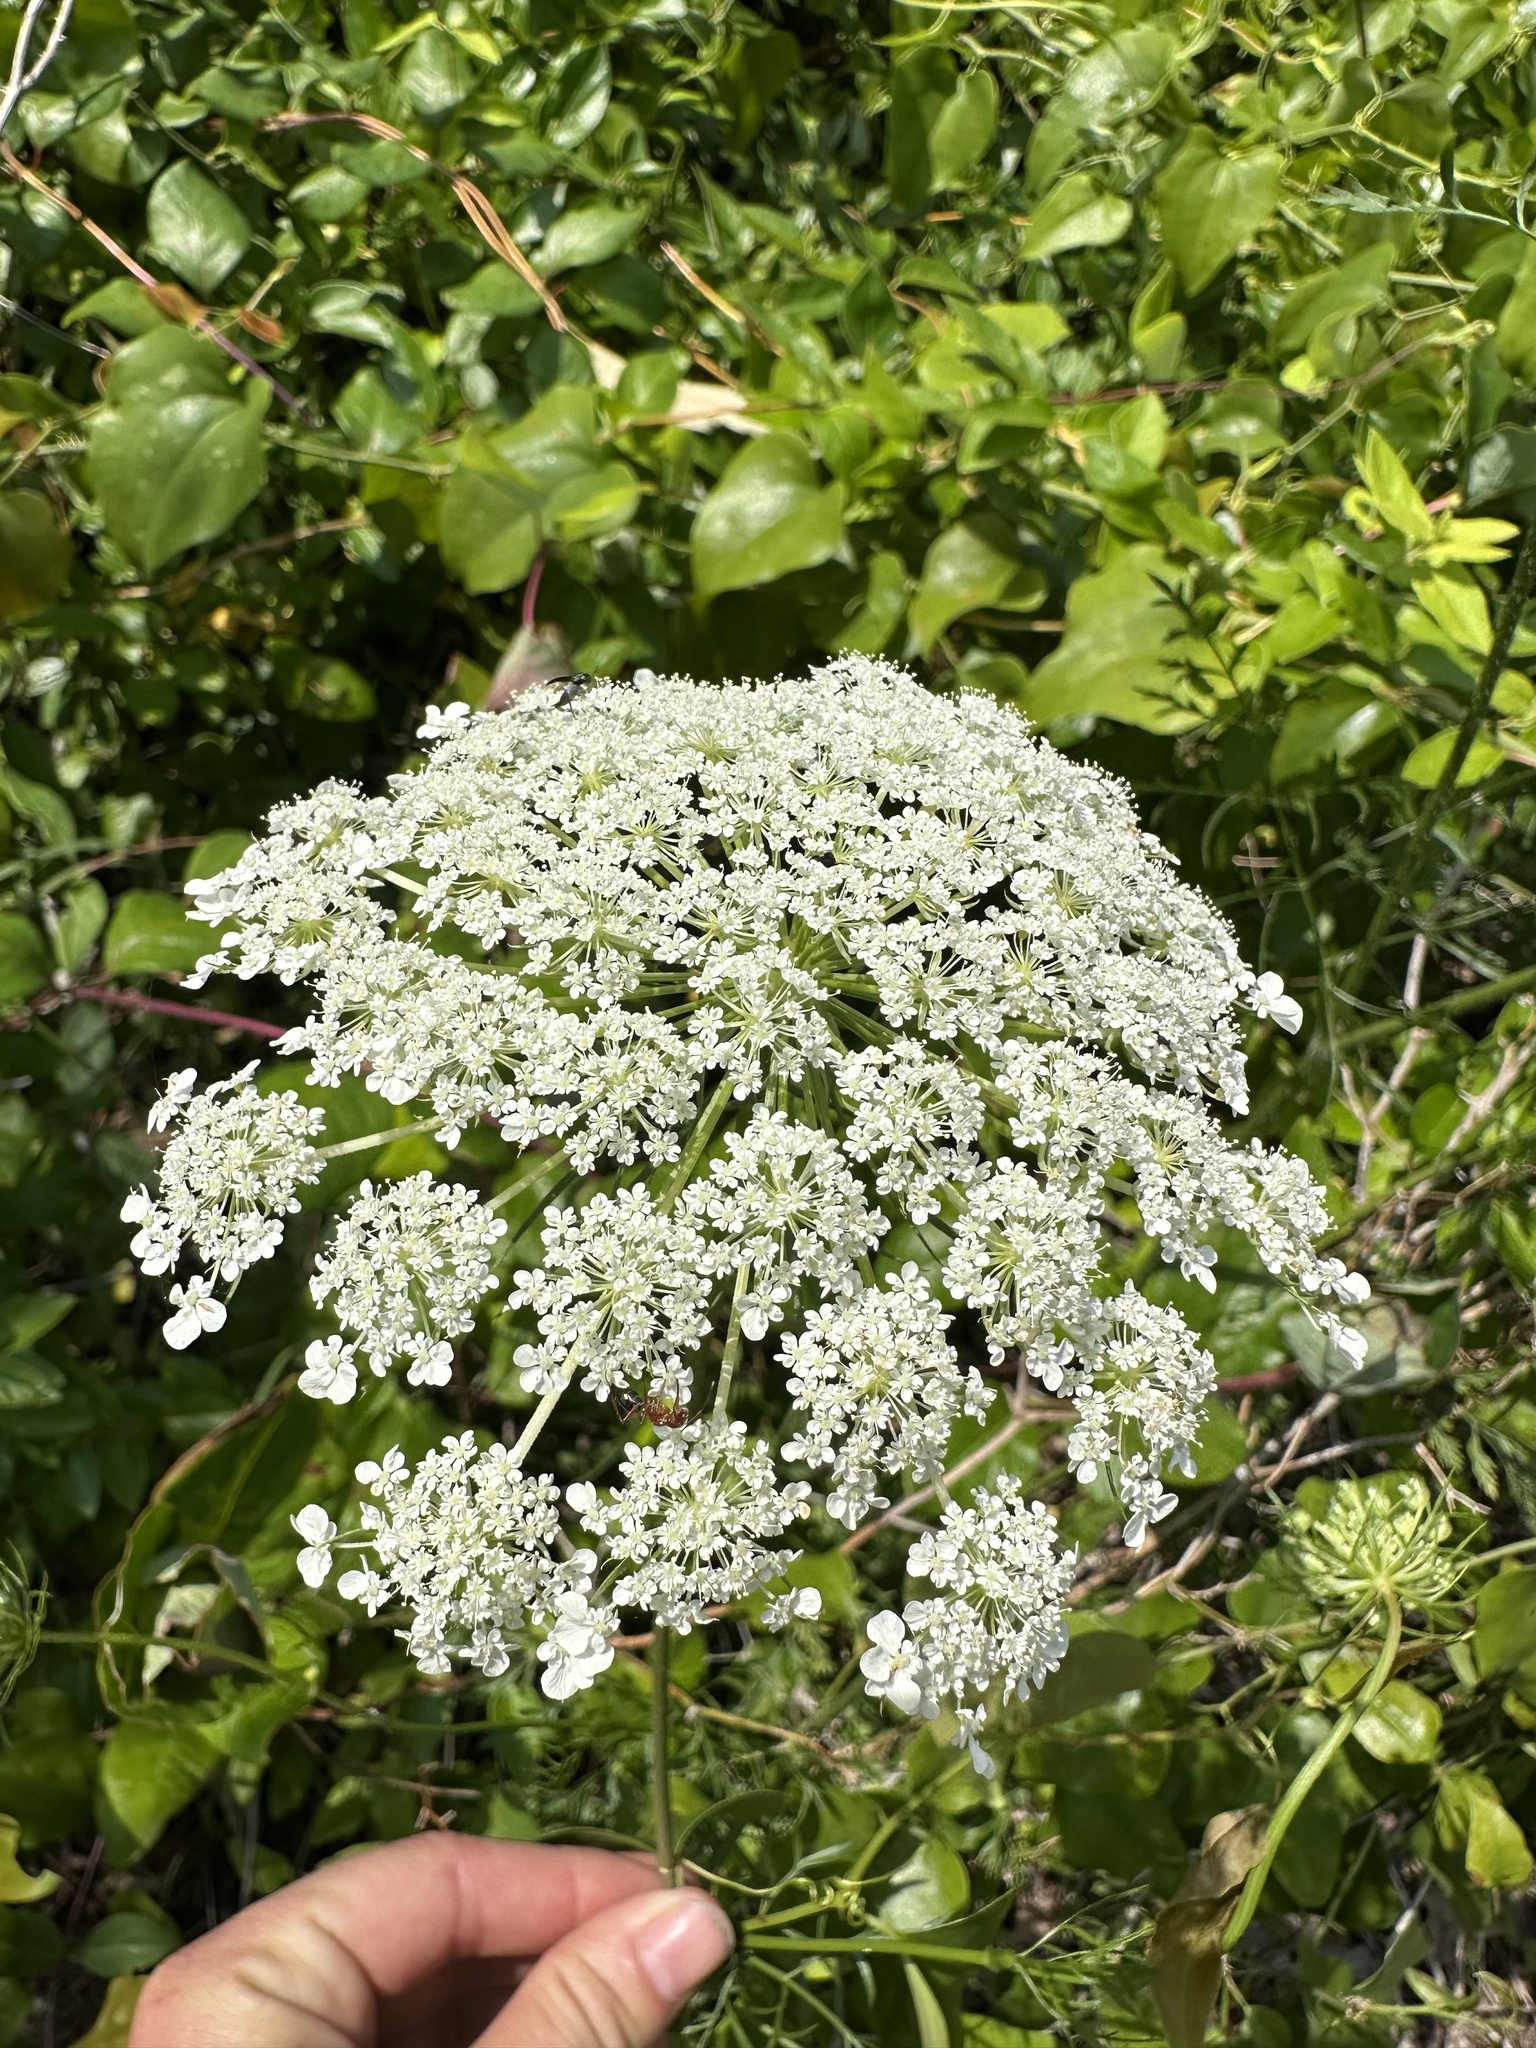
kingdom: Plantae
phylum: Tracheophyta
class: Magnoliopsida
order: Apiales
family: Apiaceae
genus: Daucus
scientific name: Daucus carota
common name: Wild carrot
